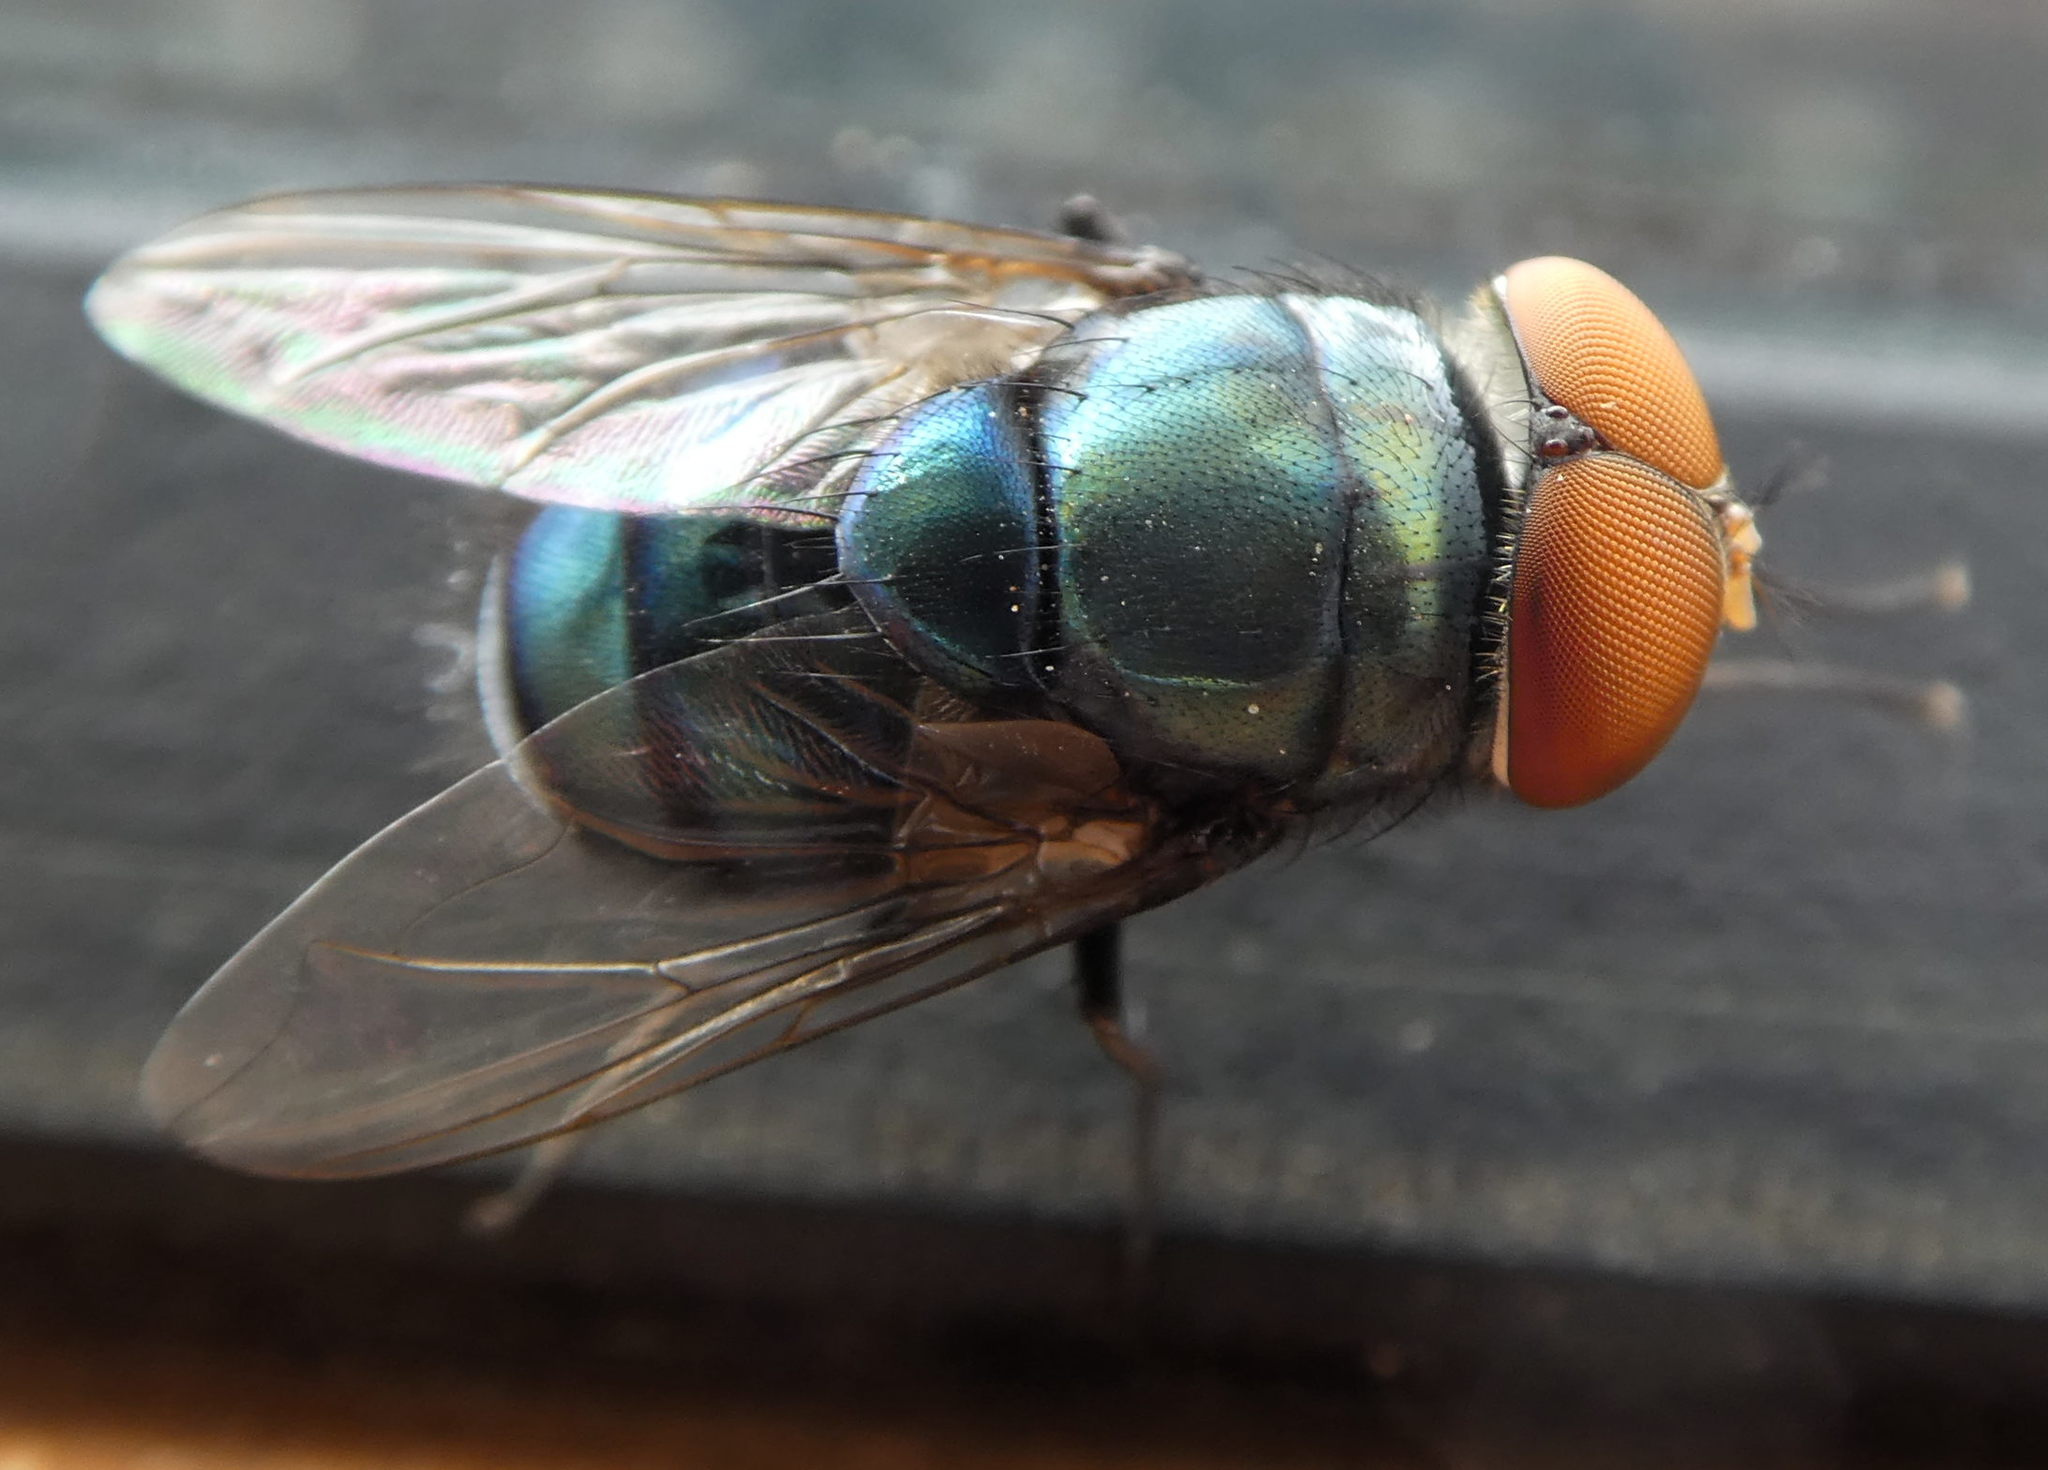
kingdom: Animalia
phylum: Arthropoda
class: Insecta
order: Diptera
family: Calliphoridae
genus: Chrysomya
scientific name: Chrysomya megacephala
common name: Blow fly
